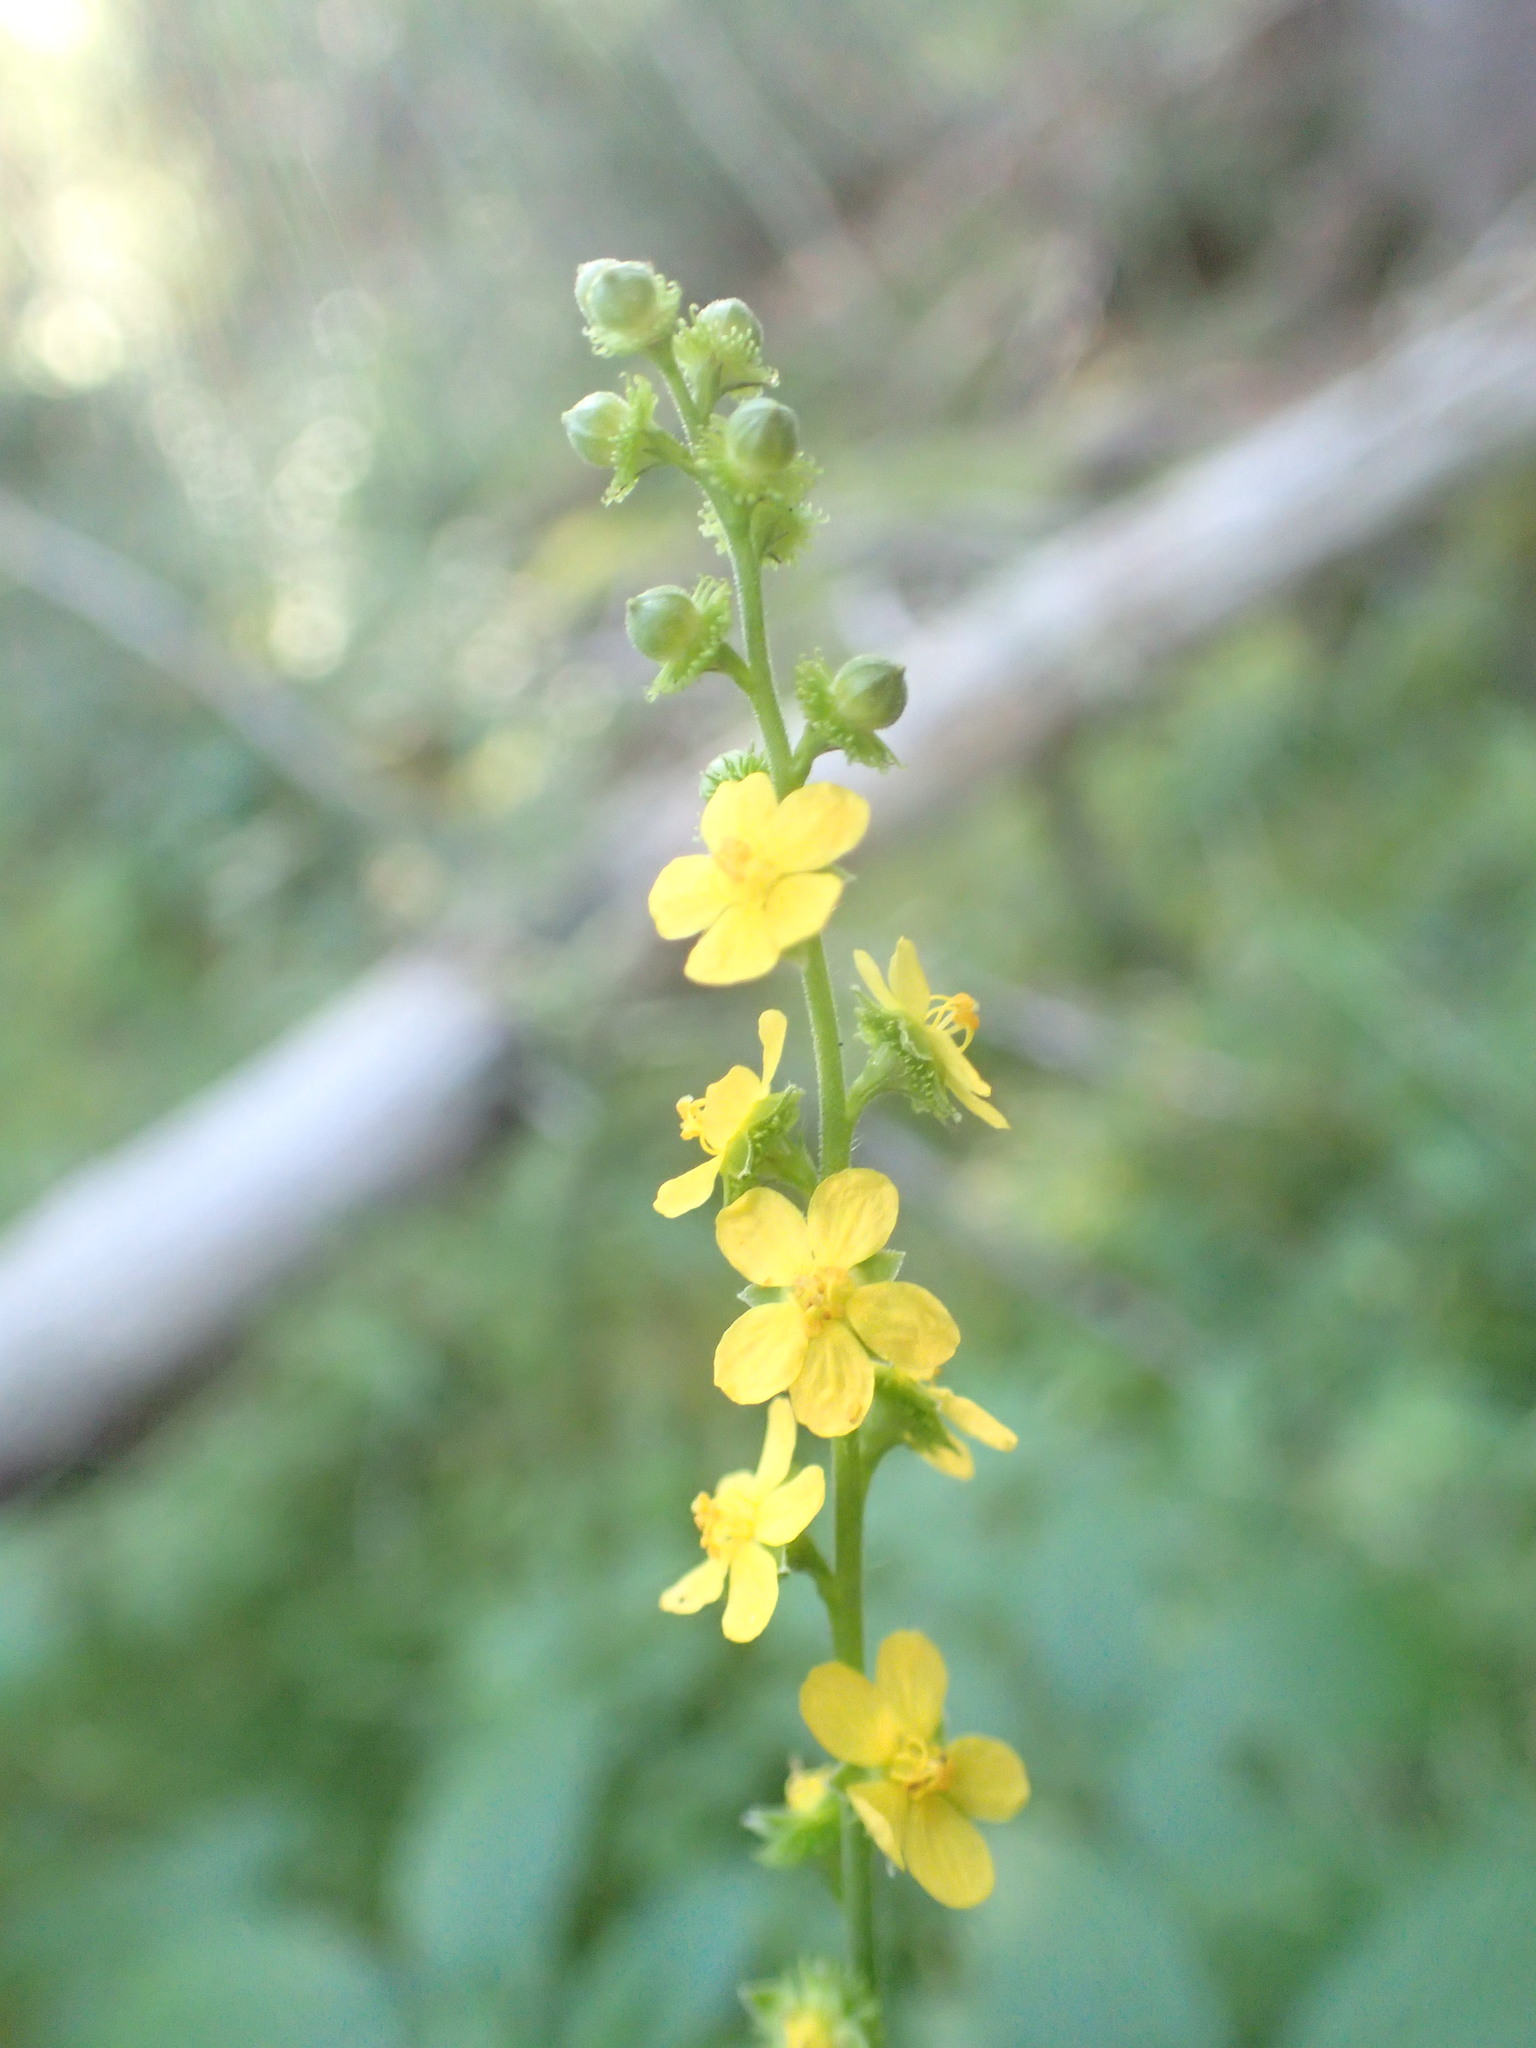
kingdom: Plantae
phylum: Tracheophyta
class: Magnoliopsida
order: Rosales
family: Rosaceae
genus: Agrimonia
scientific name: Agrimonia gryposepala
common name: Common agrimony
